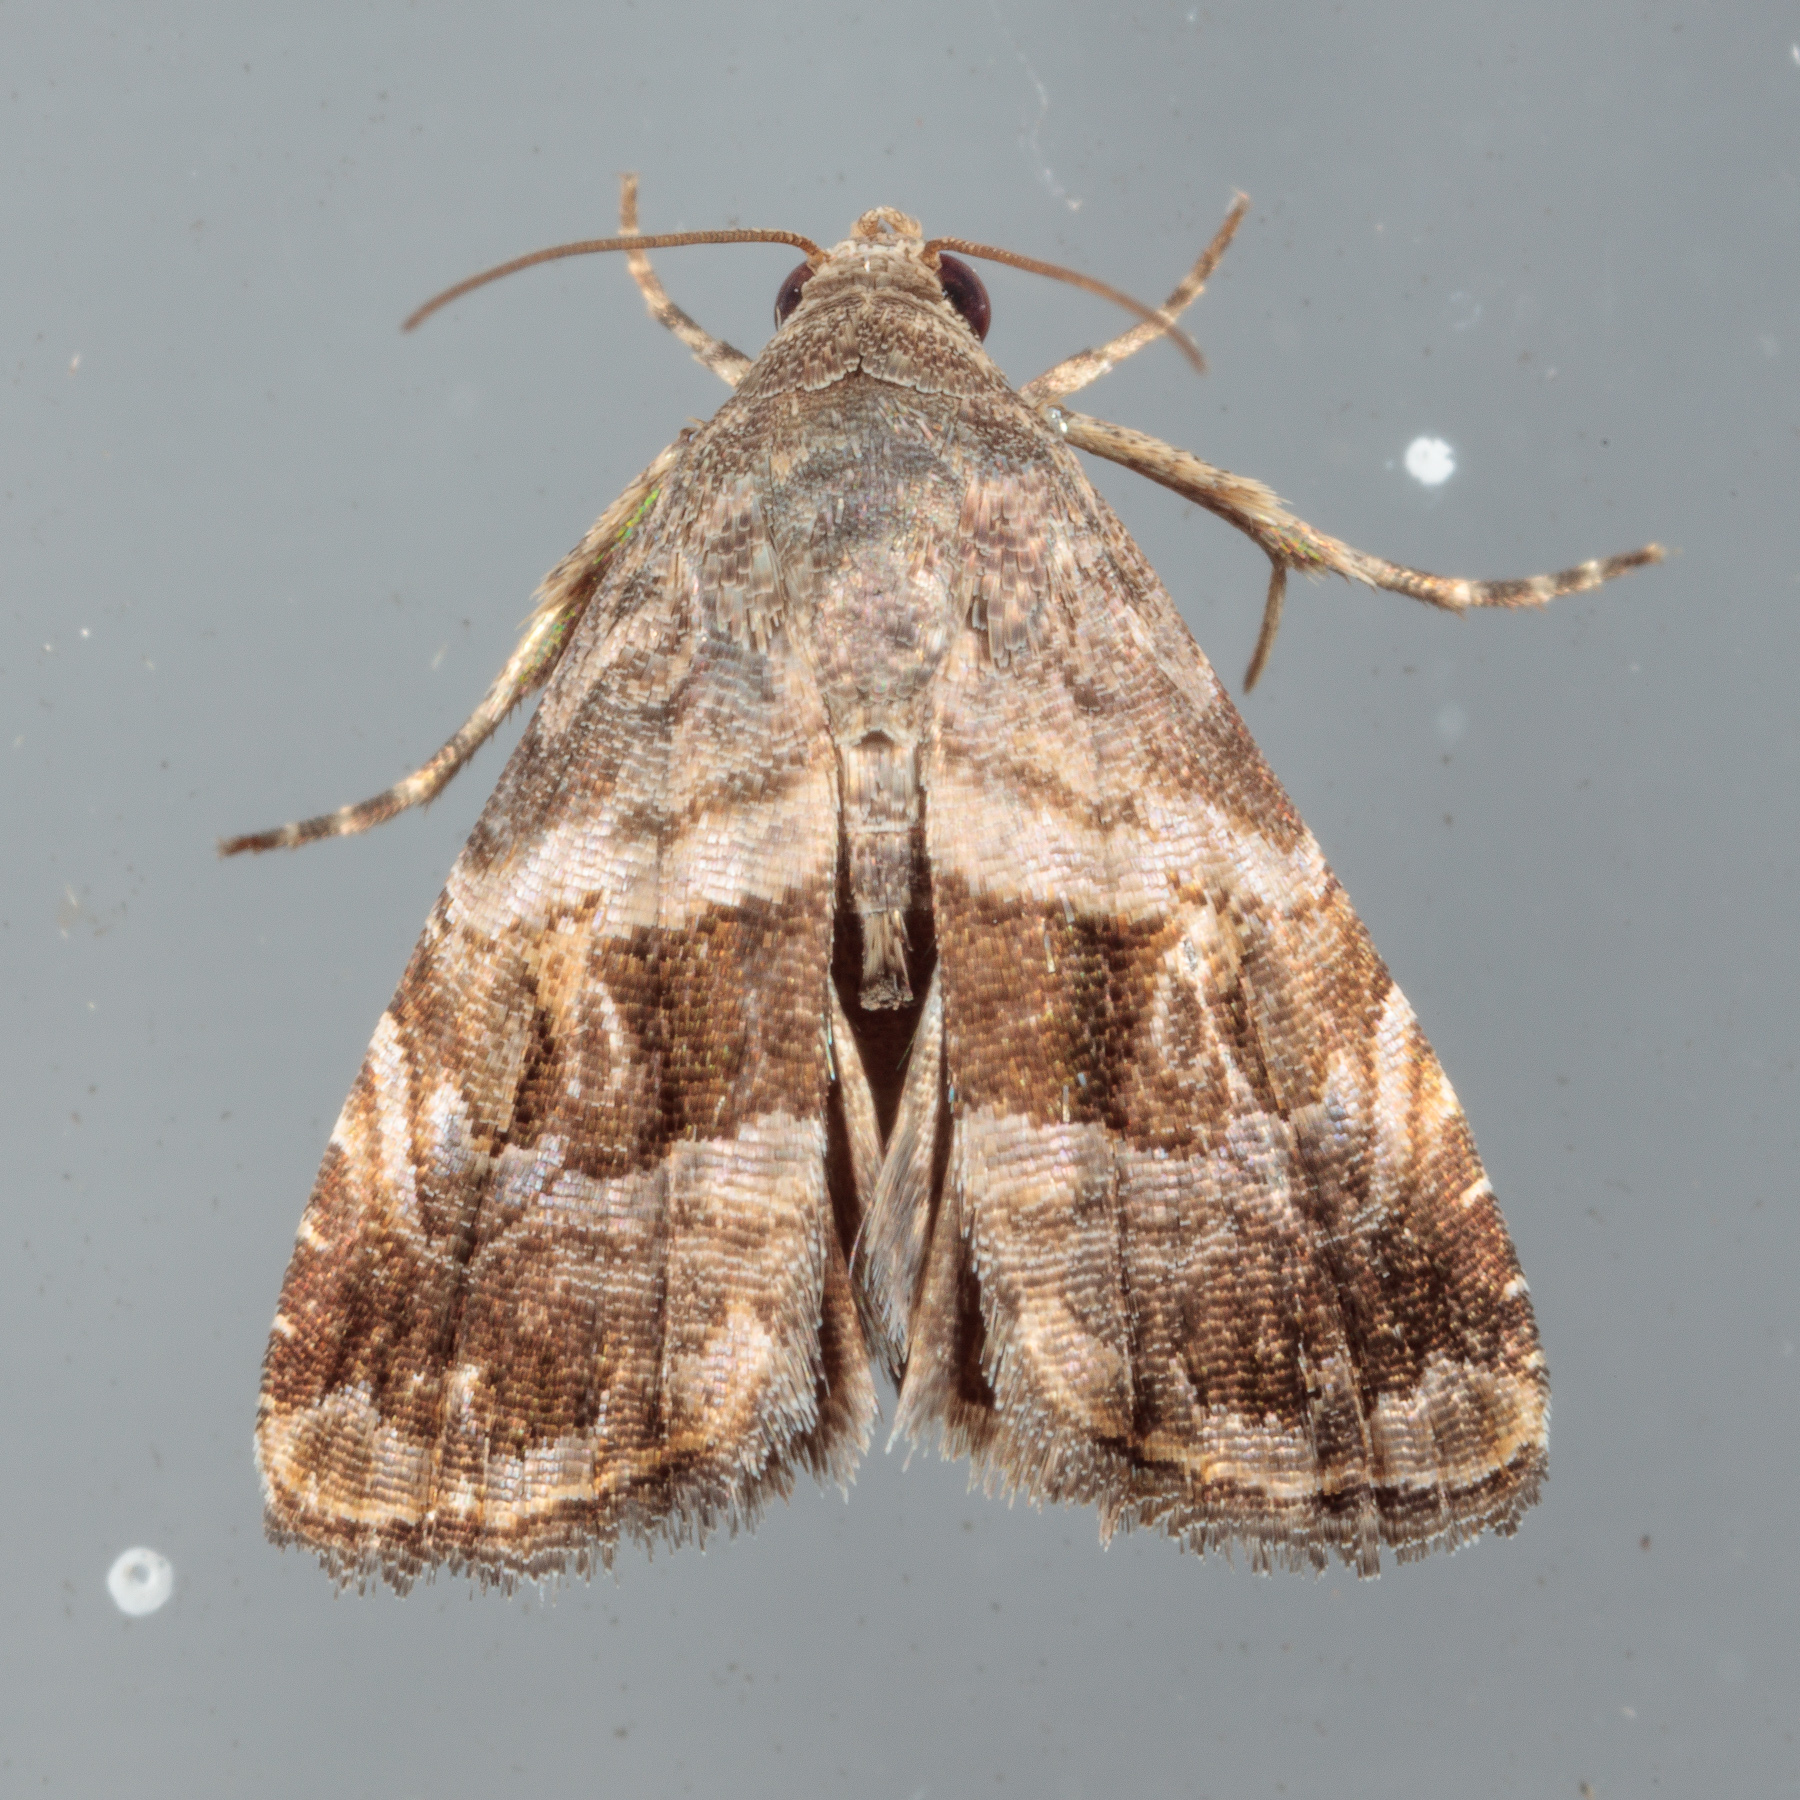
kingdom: Animalia
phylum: Arthropoda
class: Insecta
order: Lepidoptera
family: Noctuidae
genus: Tripudia
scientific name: Tripudia quadrifera
